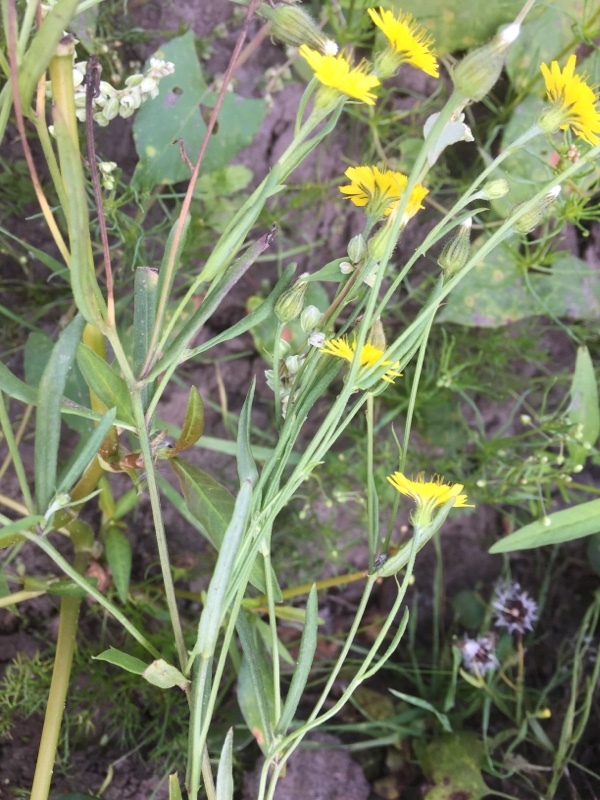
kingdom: Plantae
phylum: Tracheophyta
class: Magnoliopsida
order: Asterales
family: Asteraceae
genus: Crepis
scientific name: Crepis tectorum
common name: Narrow-leaved hawk's-beard
